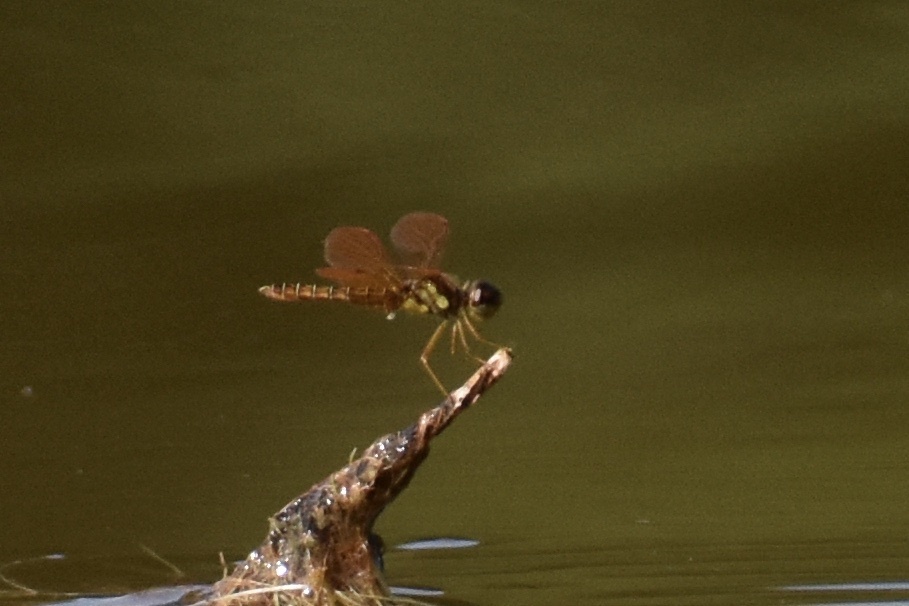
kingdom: Animalia
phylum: Arthropoda
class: Insecta
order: Odonata
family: Libellulidae
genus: Perithemis
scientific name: Perithemis tenera
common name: Eastern amberwing
